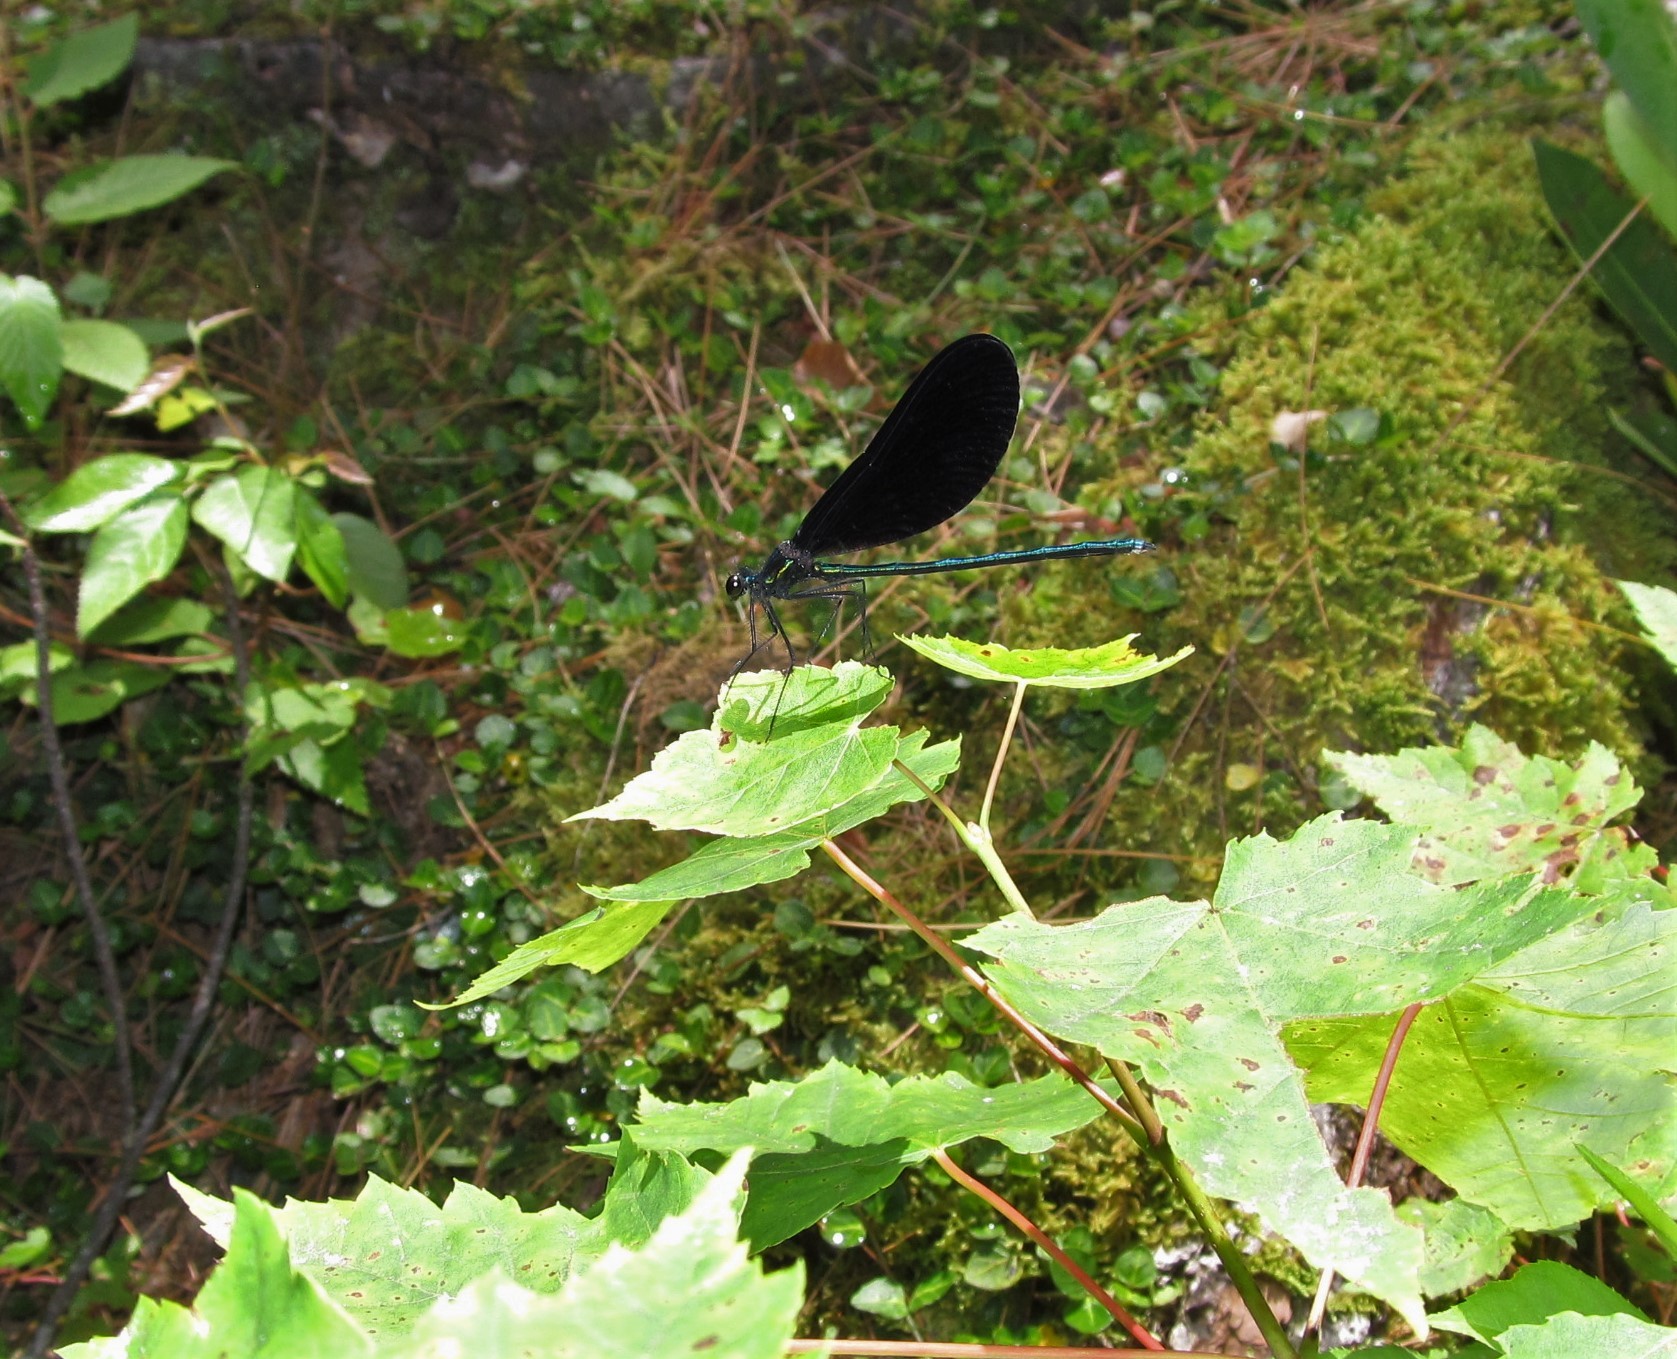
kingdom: Animalia
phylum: Arthropoda
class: Insecta
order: Odonata
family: Calopterygidae
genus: Calopteryx
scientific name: Calopteryx maculata
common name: Ebony jewelwing
